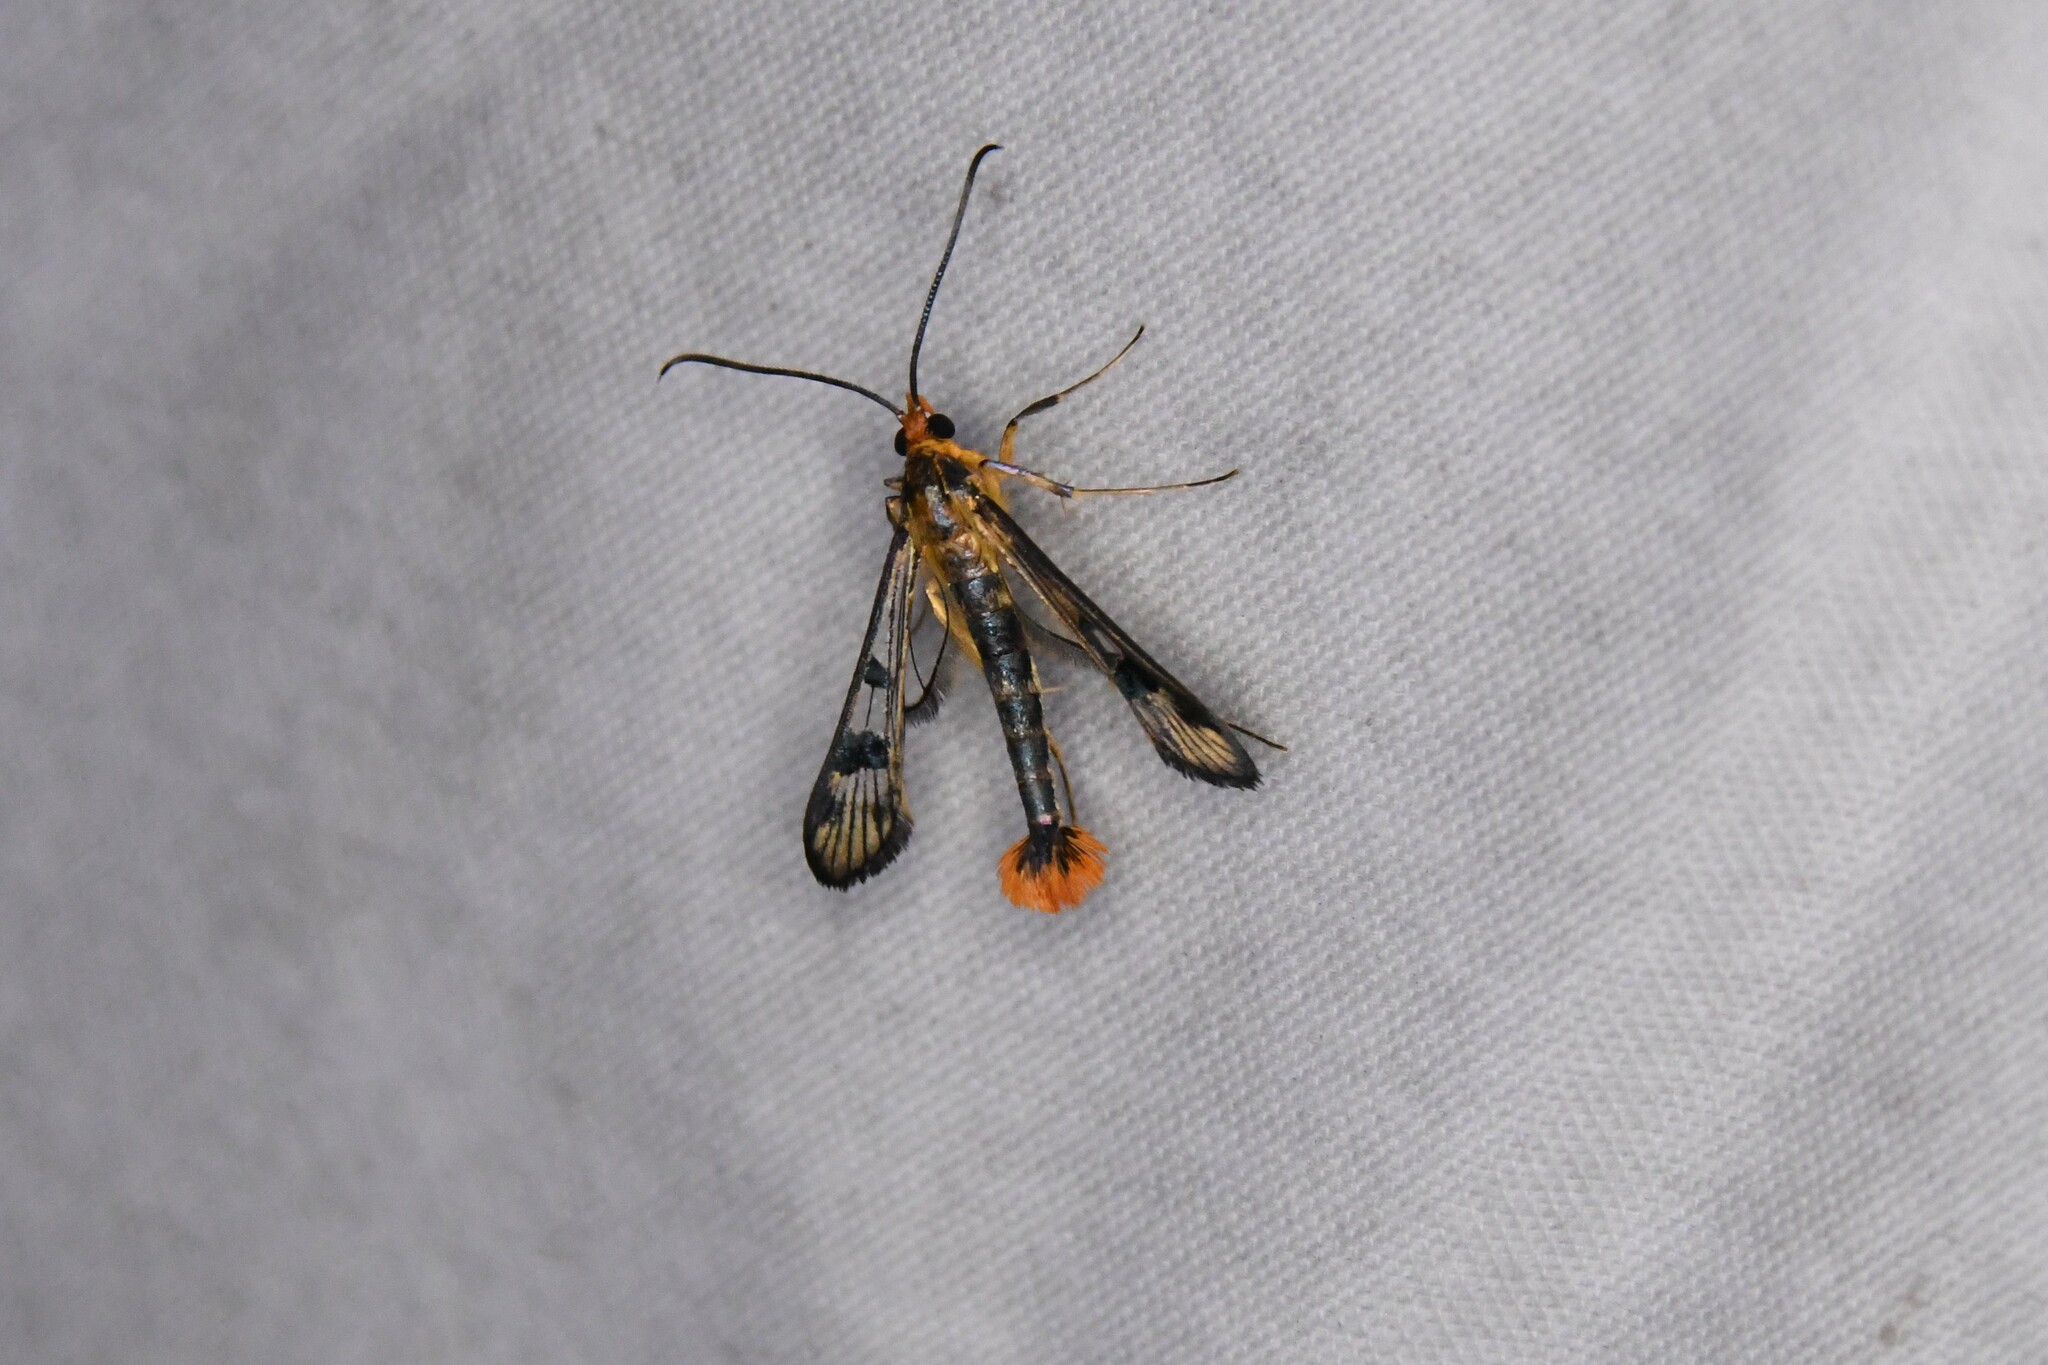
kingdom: Animalia
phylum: Arthropoda
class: Insecta
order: Lepidoptera
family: Sesiidae
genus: Synanthedon
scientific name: Synanthedon acerni
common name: Maple callus borer moth
